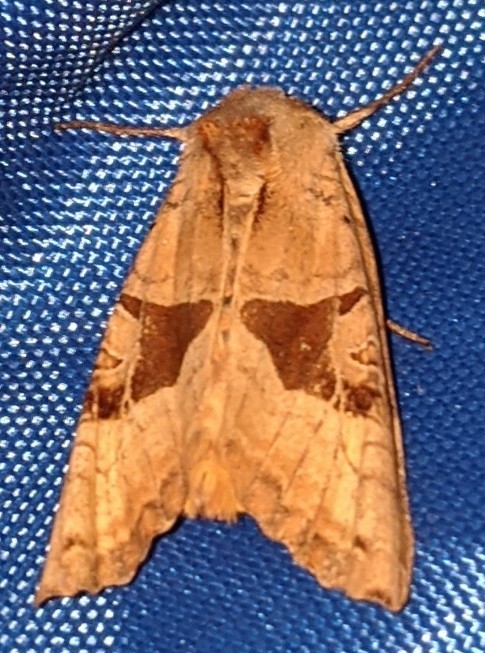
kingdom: Animalia
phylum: Arthropoda
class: Insecta
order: Lepidoptera
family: Noctuidae
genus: Phlogophora
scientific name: Phlogophora periculosa
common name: Brown angle shades
